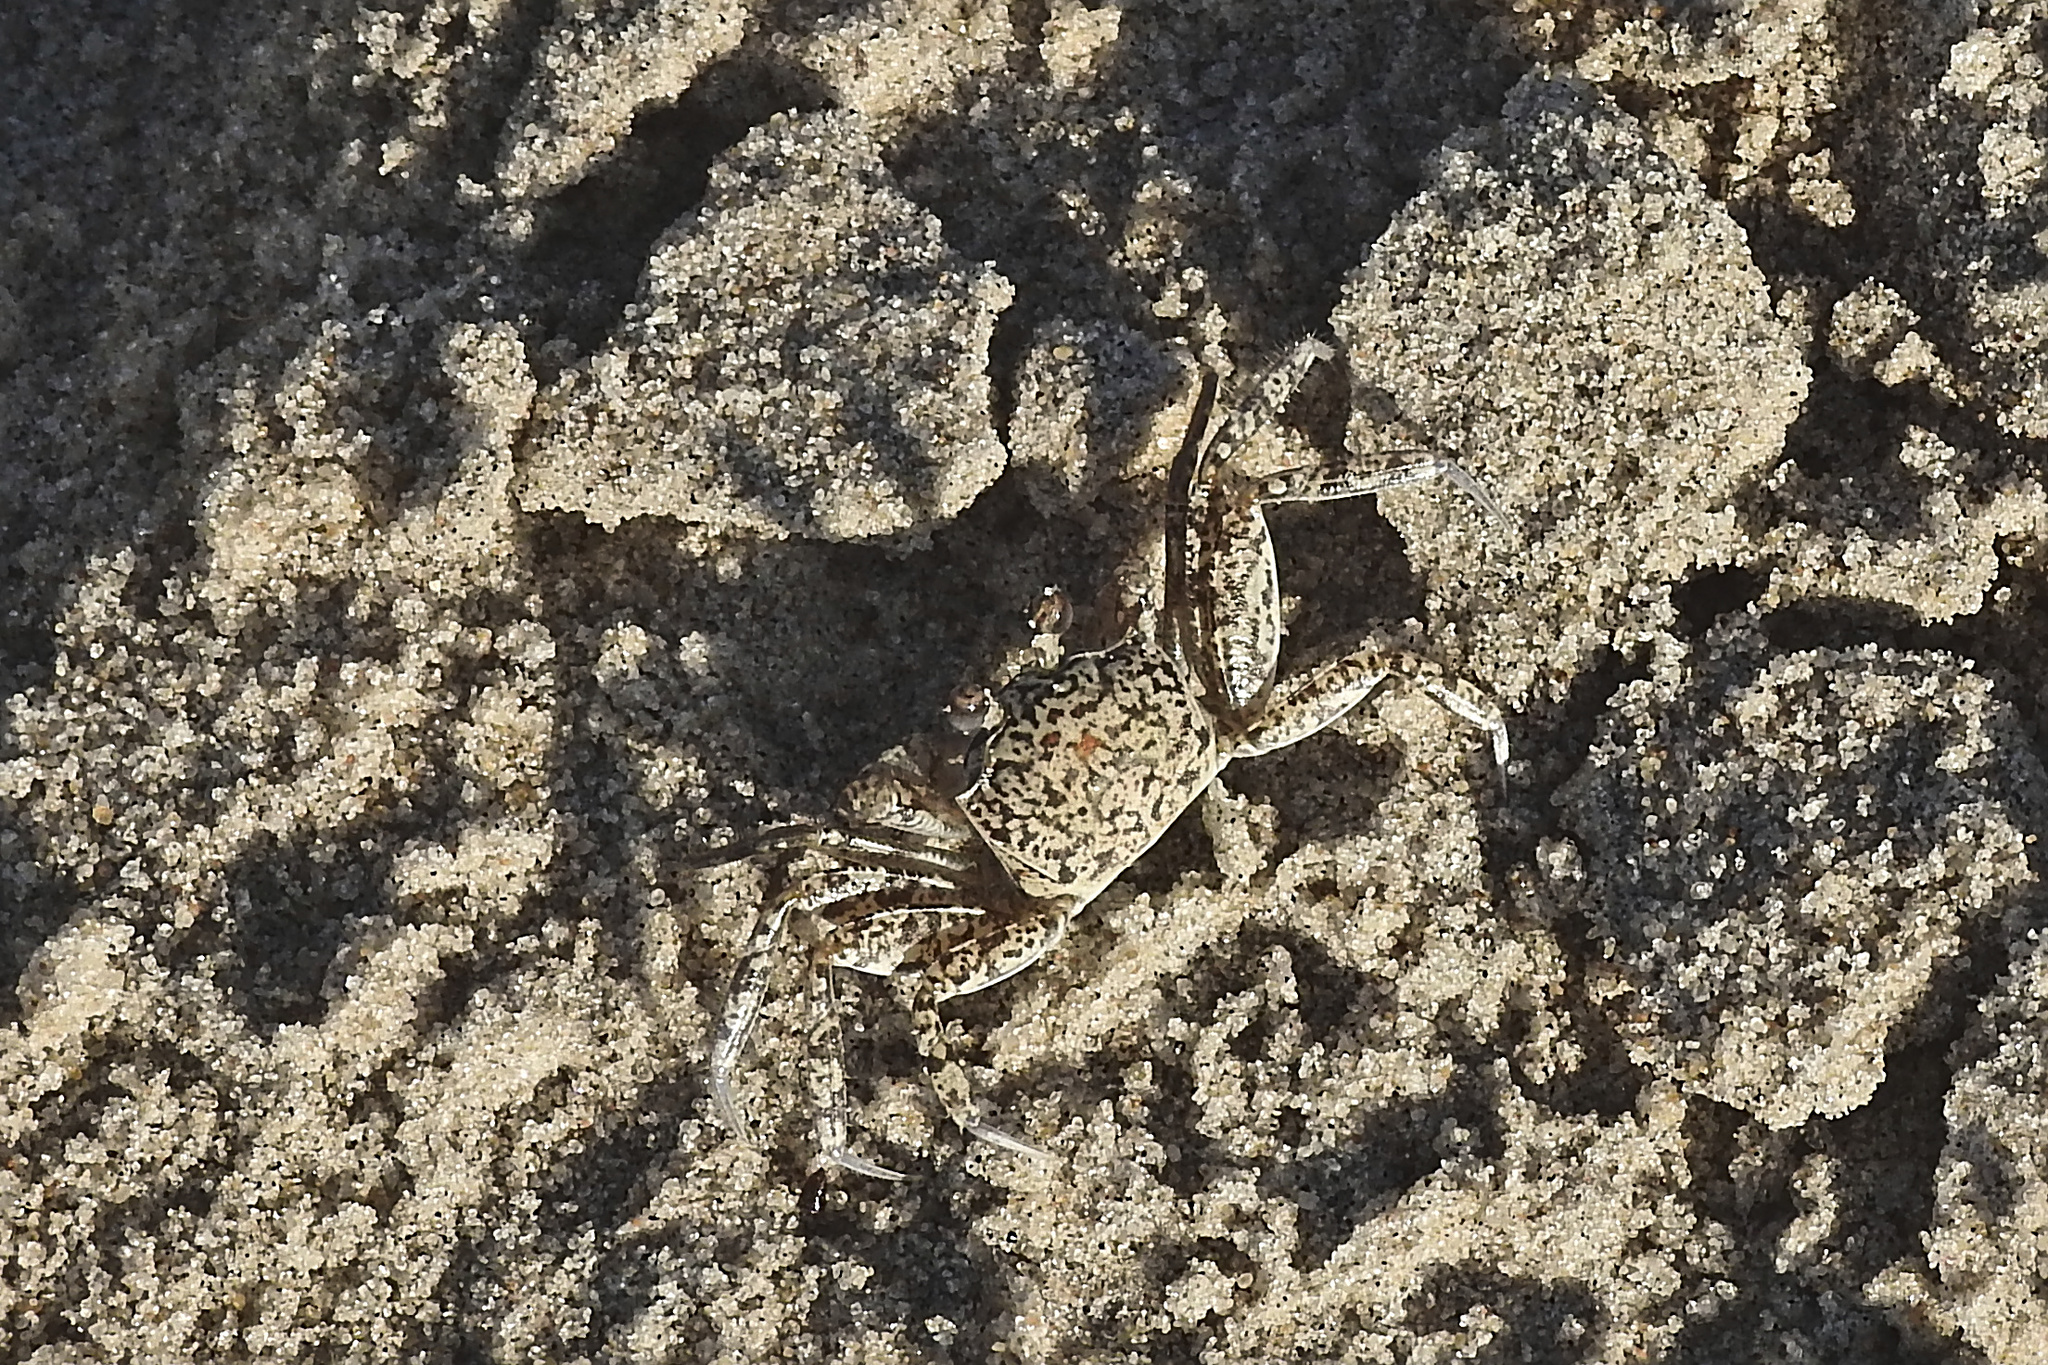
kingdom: Animalia
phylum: Arthropoda
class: Malacostraca
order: Decapoda
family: Ocypodidae
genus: Ocypode
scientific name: Ocypode quadrata
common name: Ghost crab
